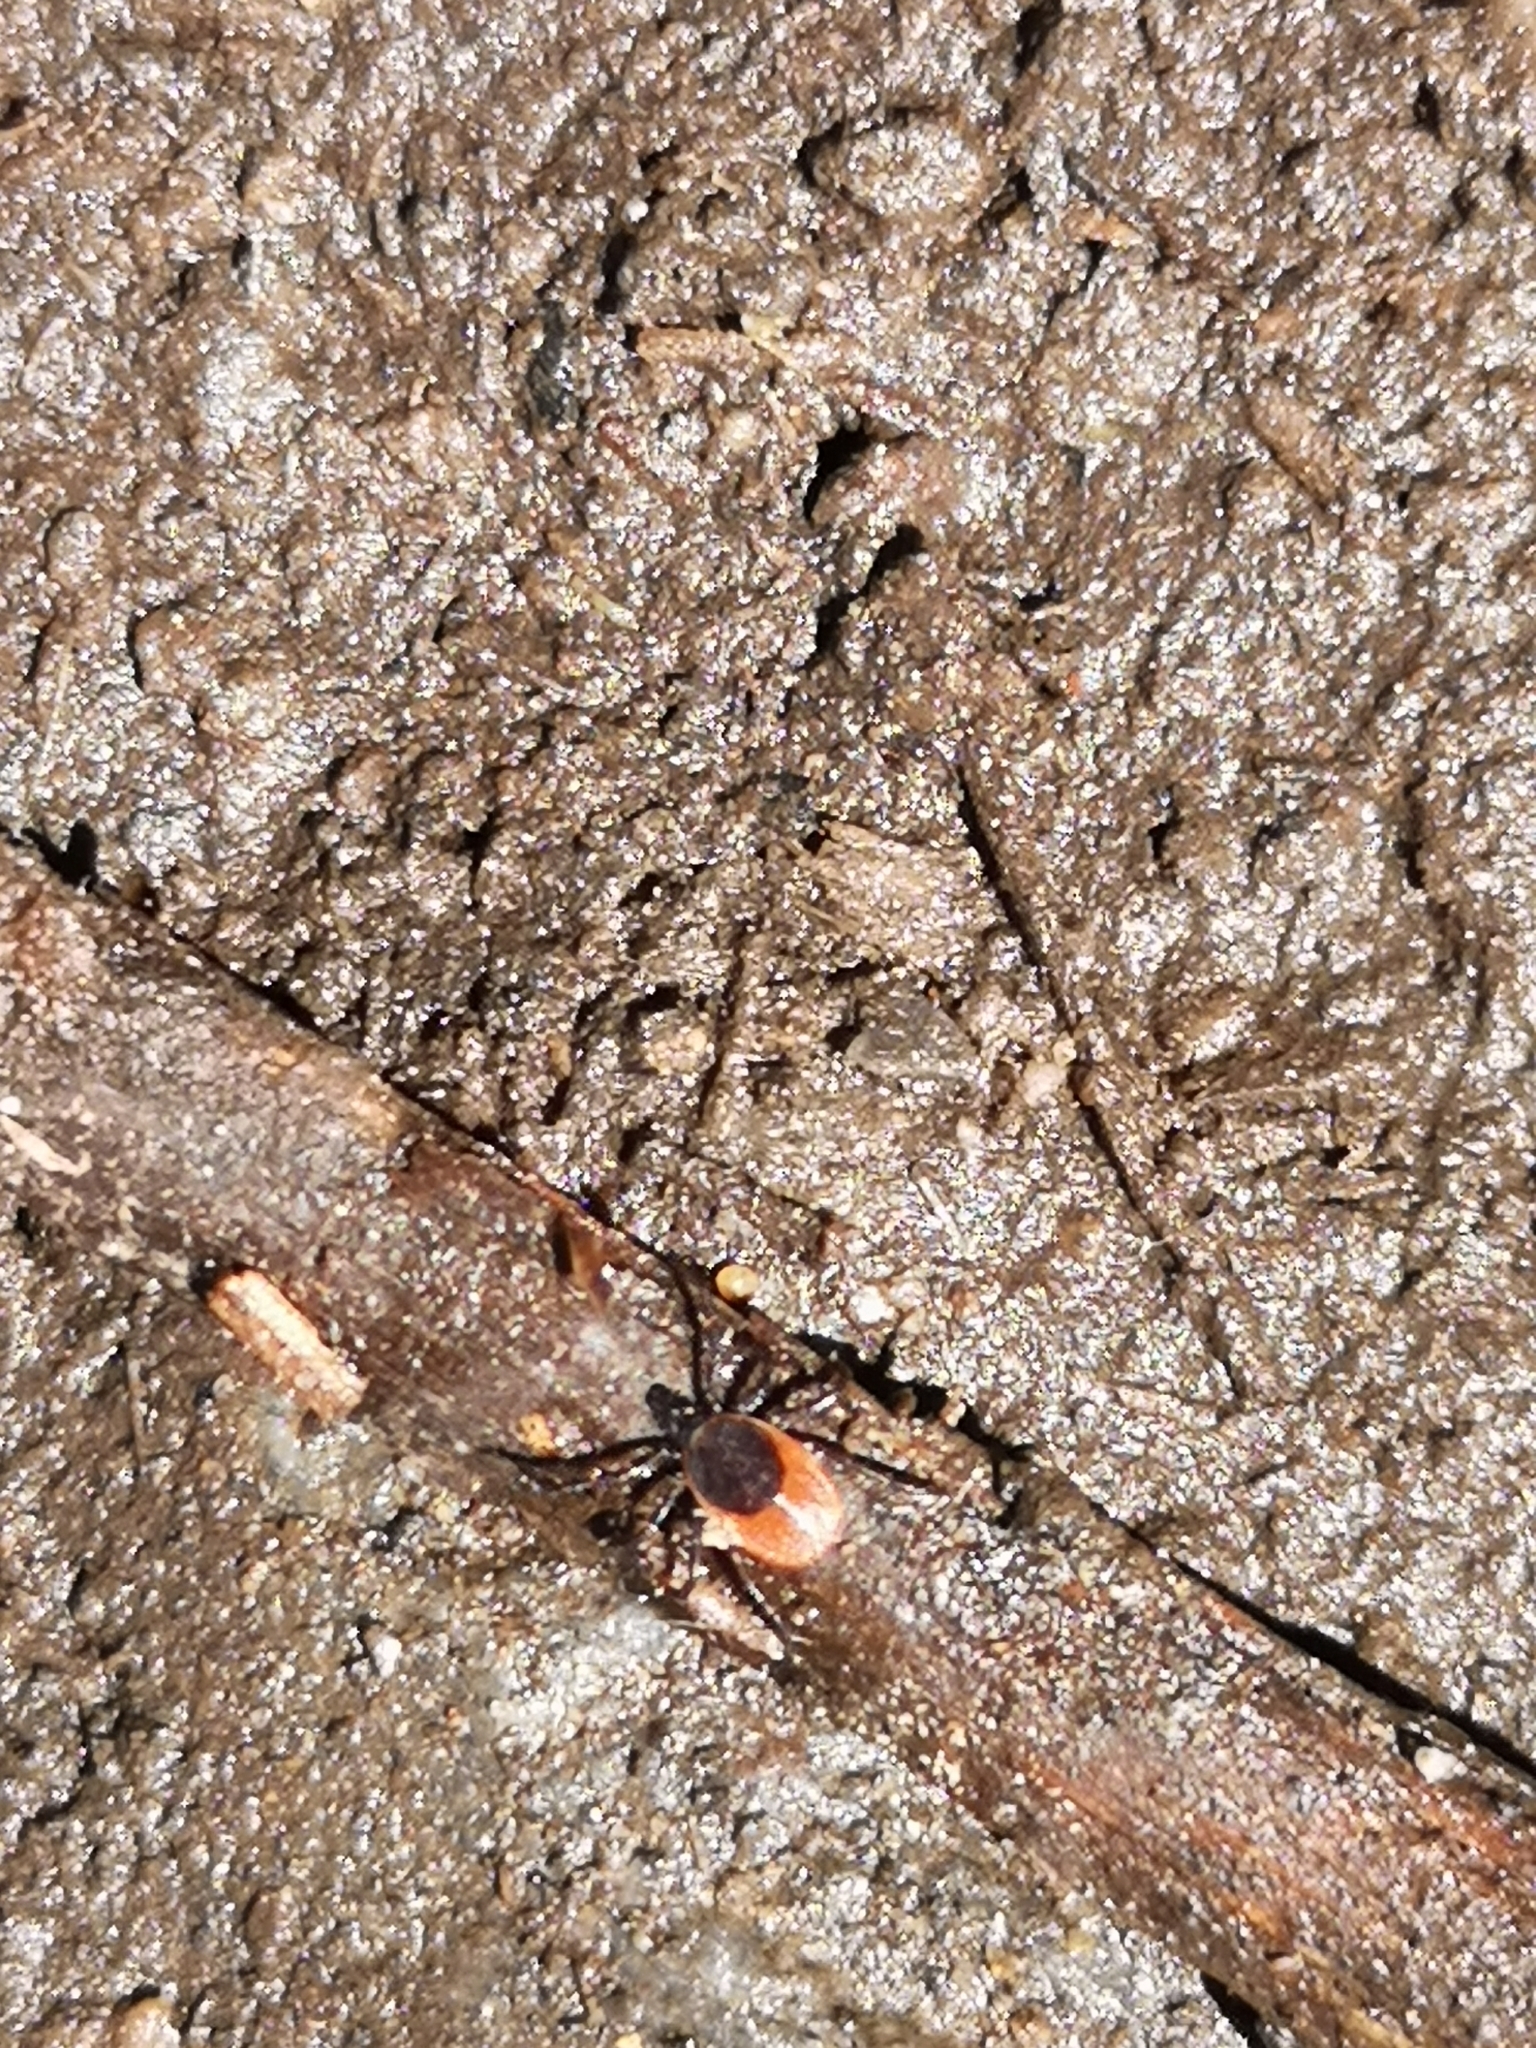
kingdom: Animalia
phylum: Arthropoda
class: Arachnida
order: Ixodida
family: Ixodidae
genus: Ixodes
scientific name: Ixodes ricinus
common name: Castor bean tick
